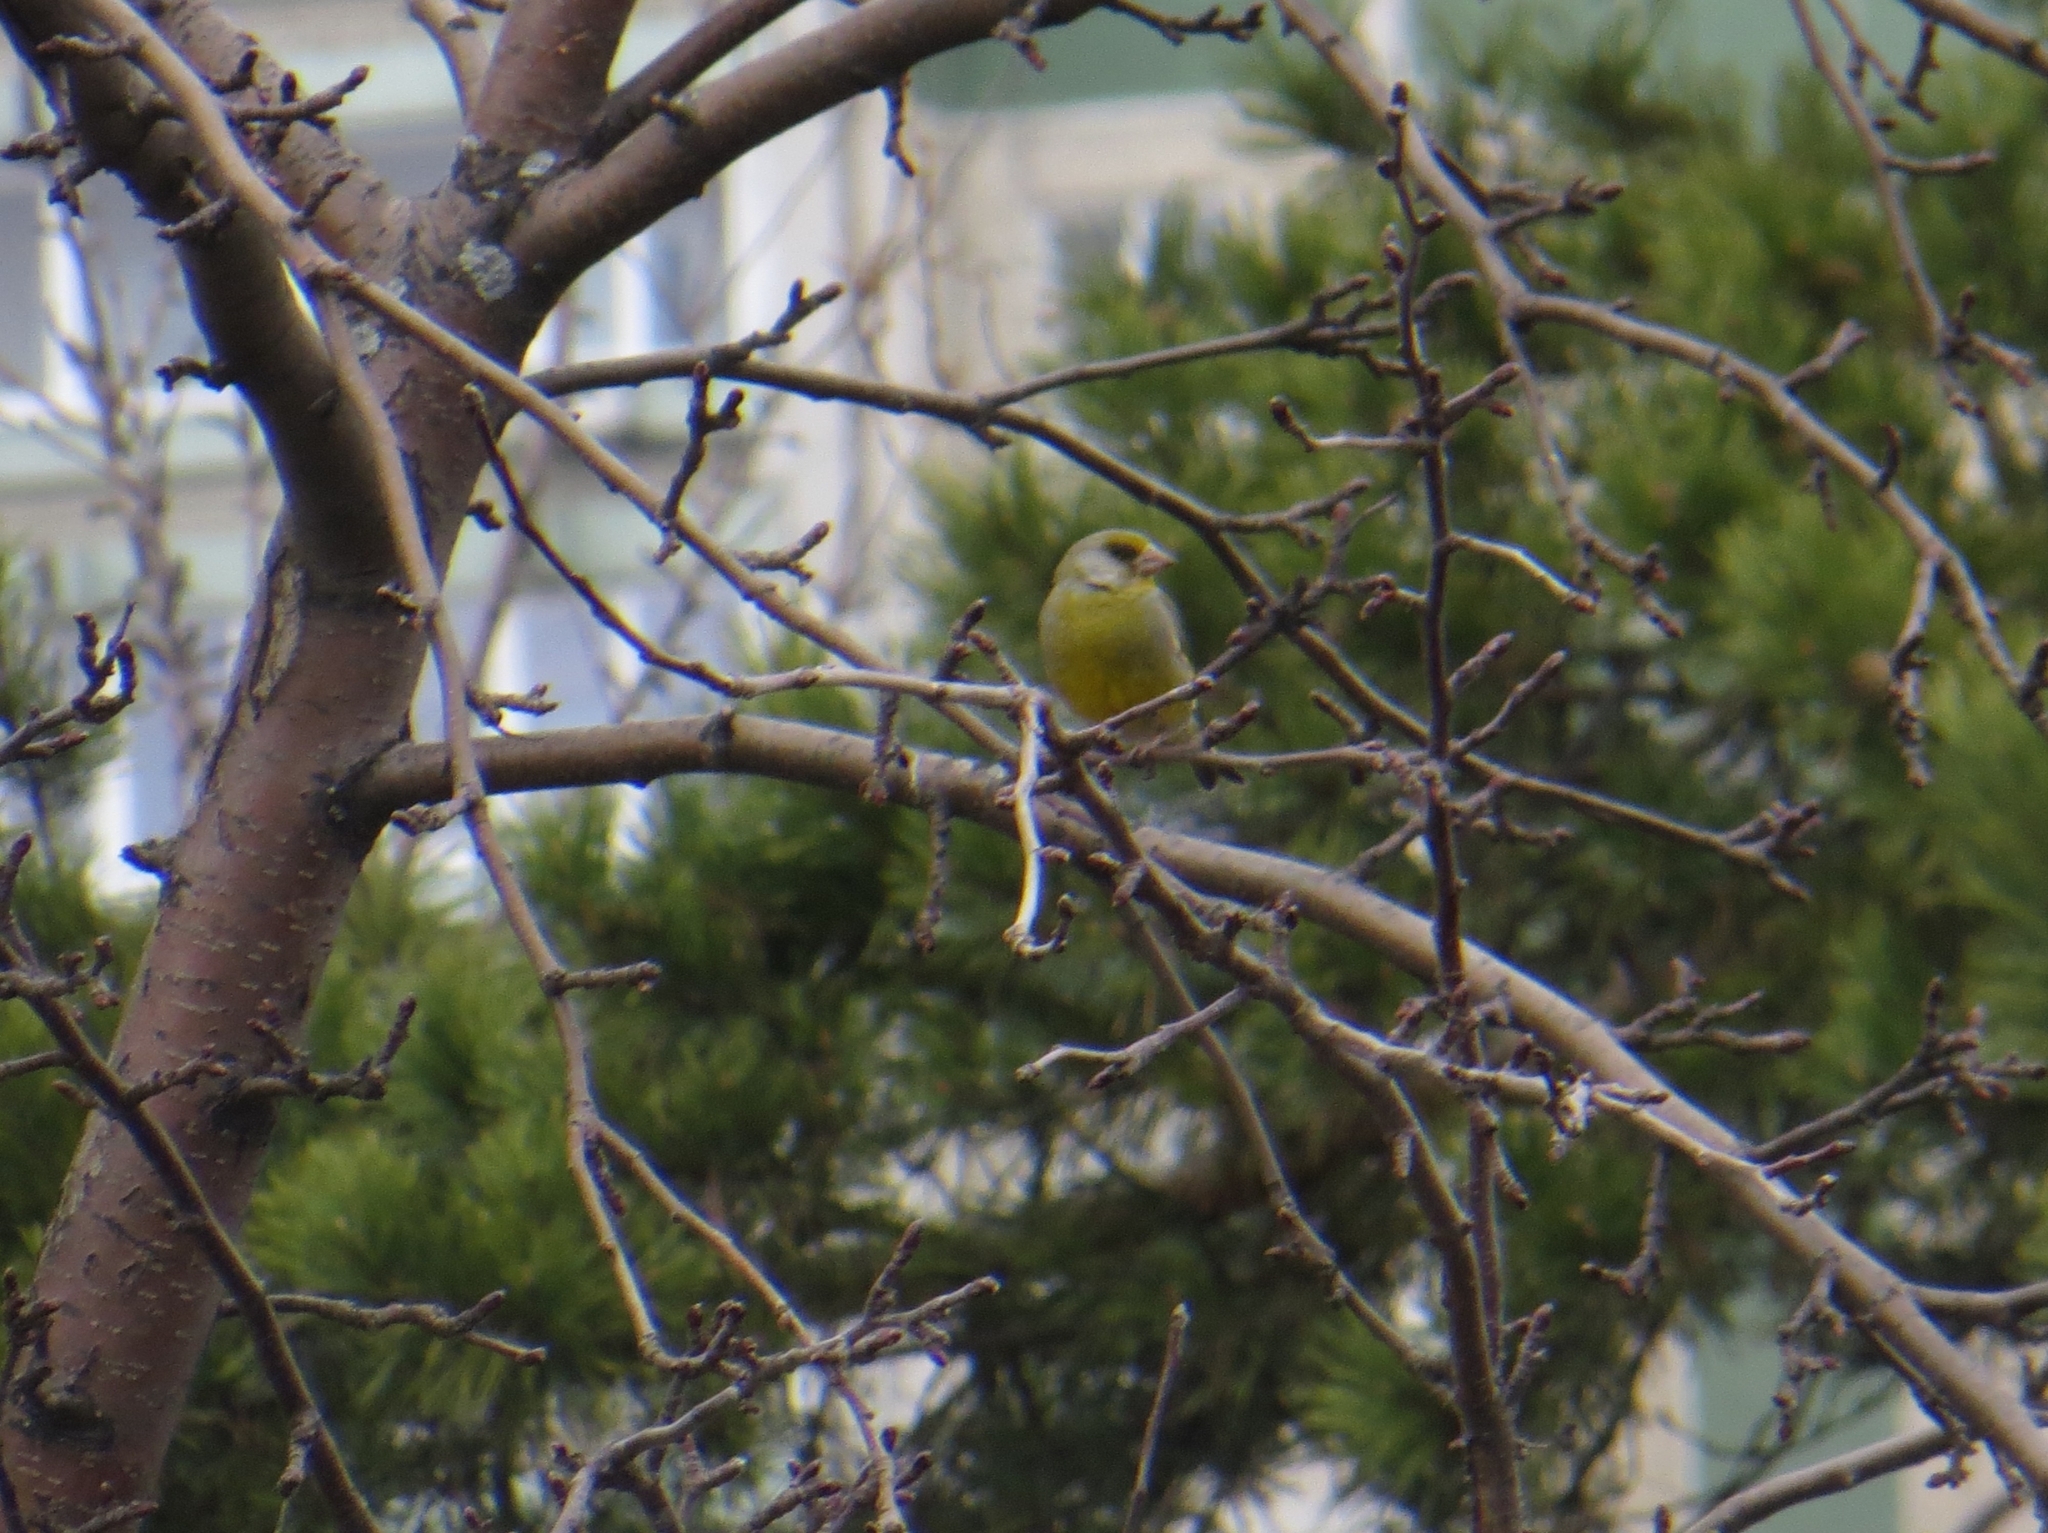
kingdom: Plantae
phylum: Tracheophyta
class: Liliopsida
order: Poales
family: Poaceae
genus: Chloris
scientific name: Chloris chloris
